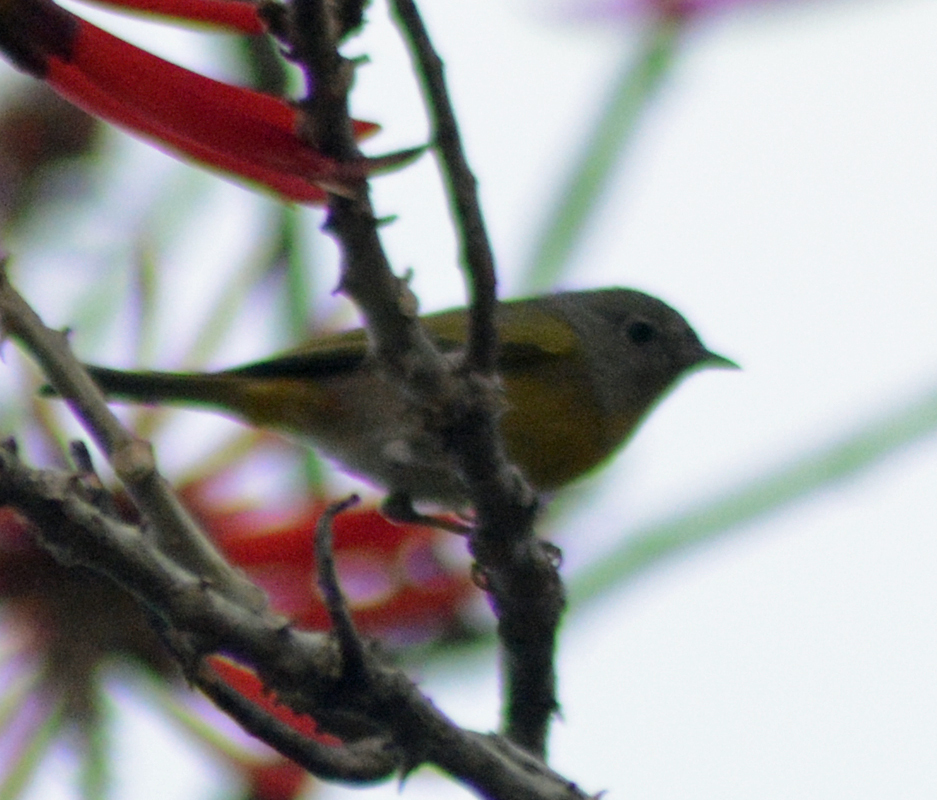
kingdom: Animalia
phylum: Chordata
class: Aves
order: Passeriformes
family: Parulidae
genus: Leiothlypis
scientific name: Leiothlypis ruficapilla
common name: Nashville warbler
